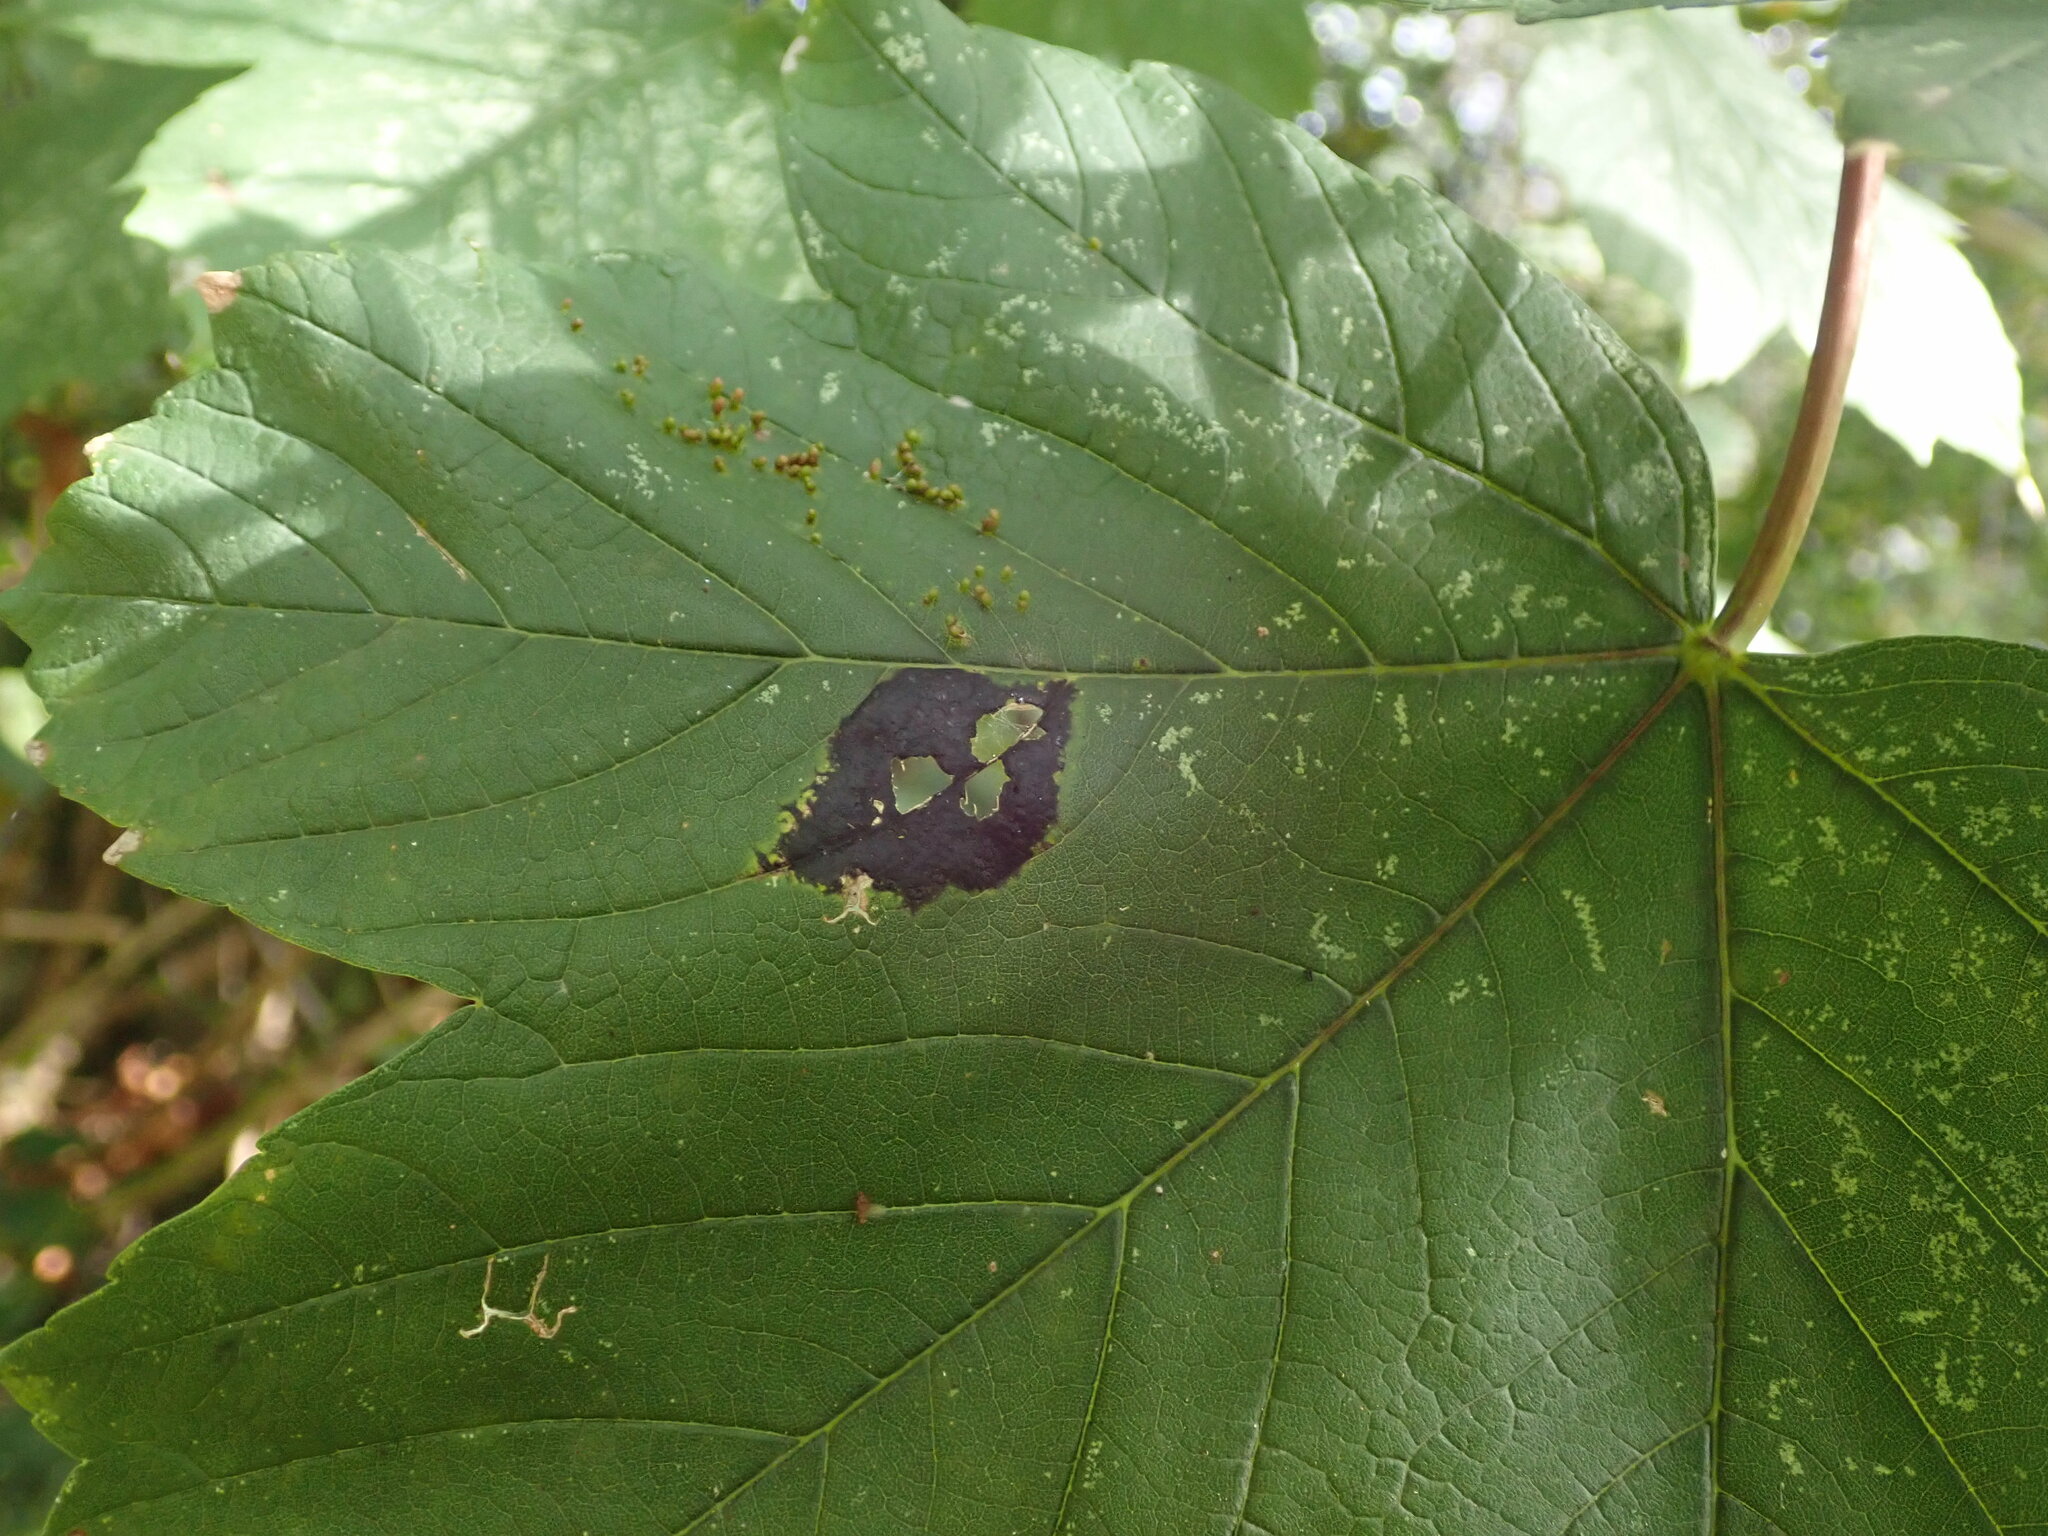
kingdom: Fungi
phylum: Ascomycota
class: Leotiomycetes
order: Rhytismatales
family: Rhytismataceae
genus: Rhytisma
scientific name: Rhytisma acerinum
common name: European tar spot
